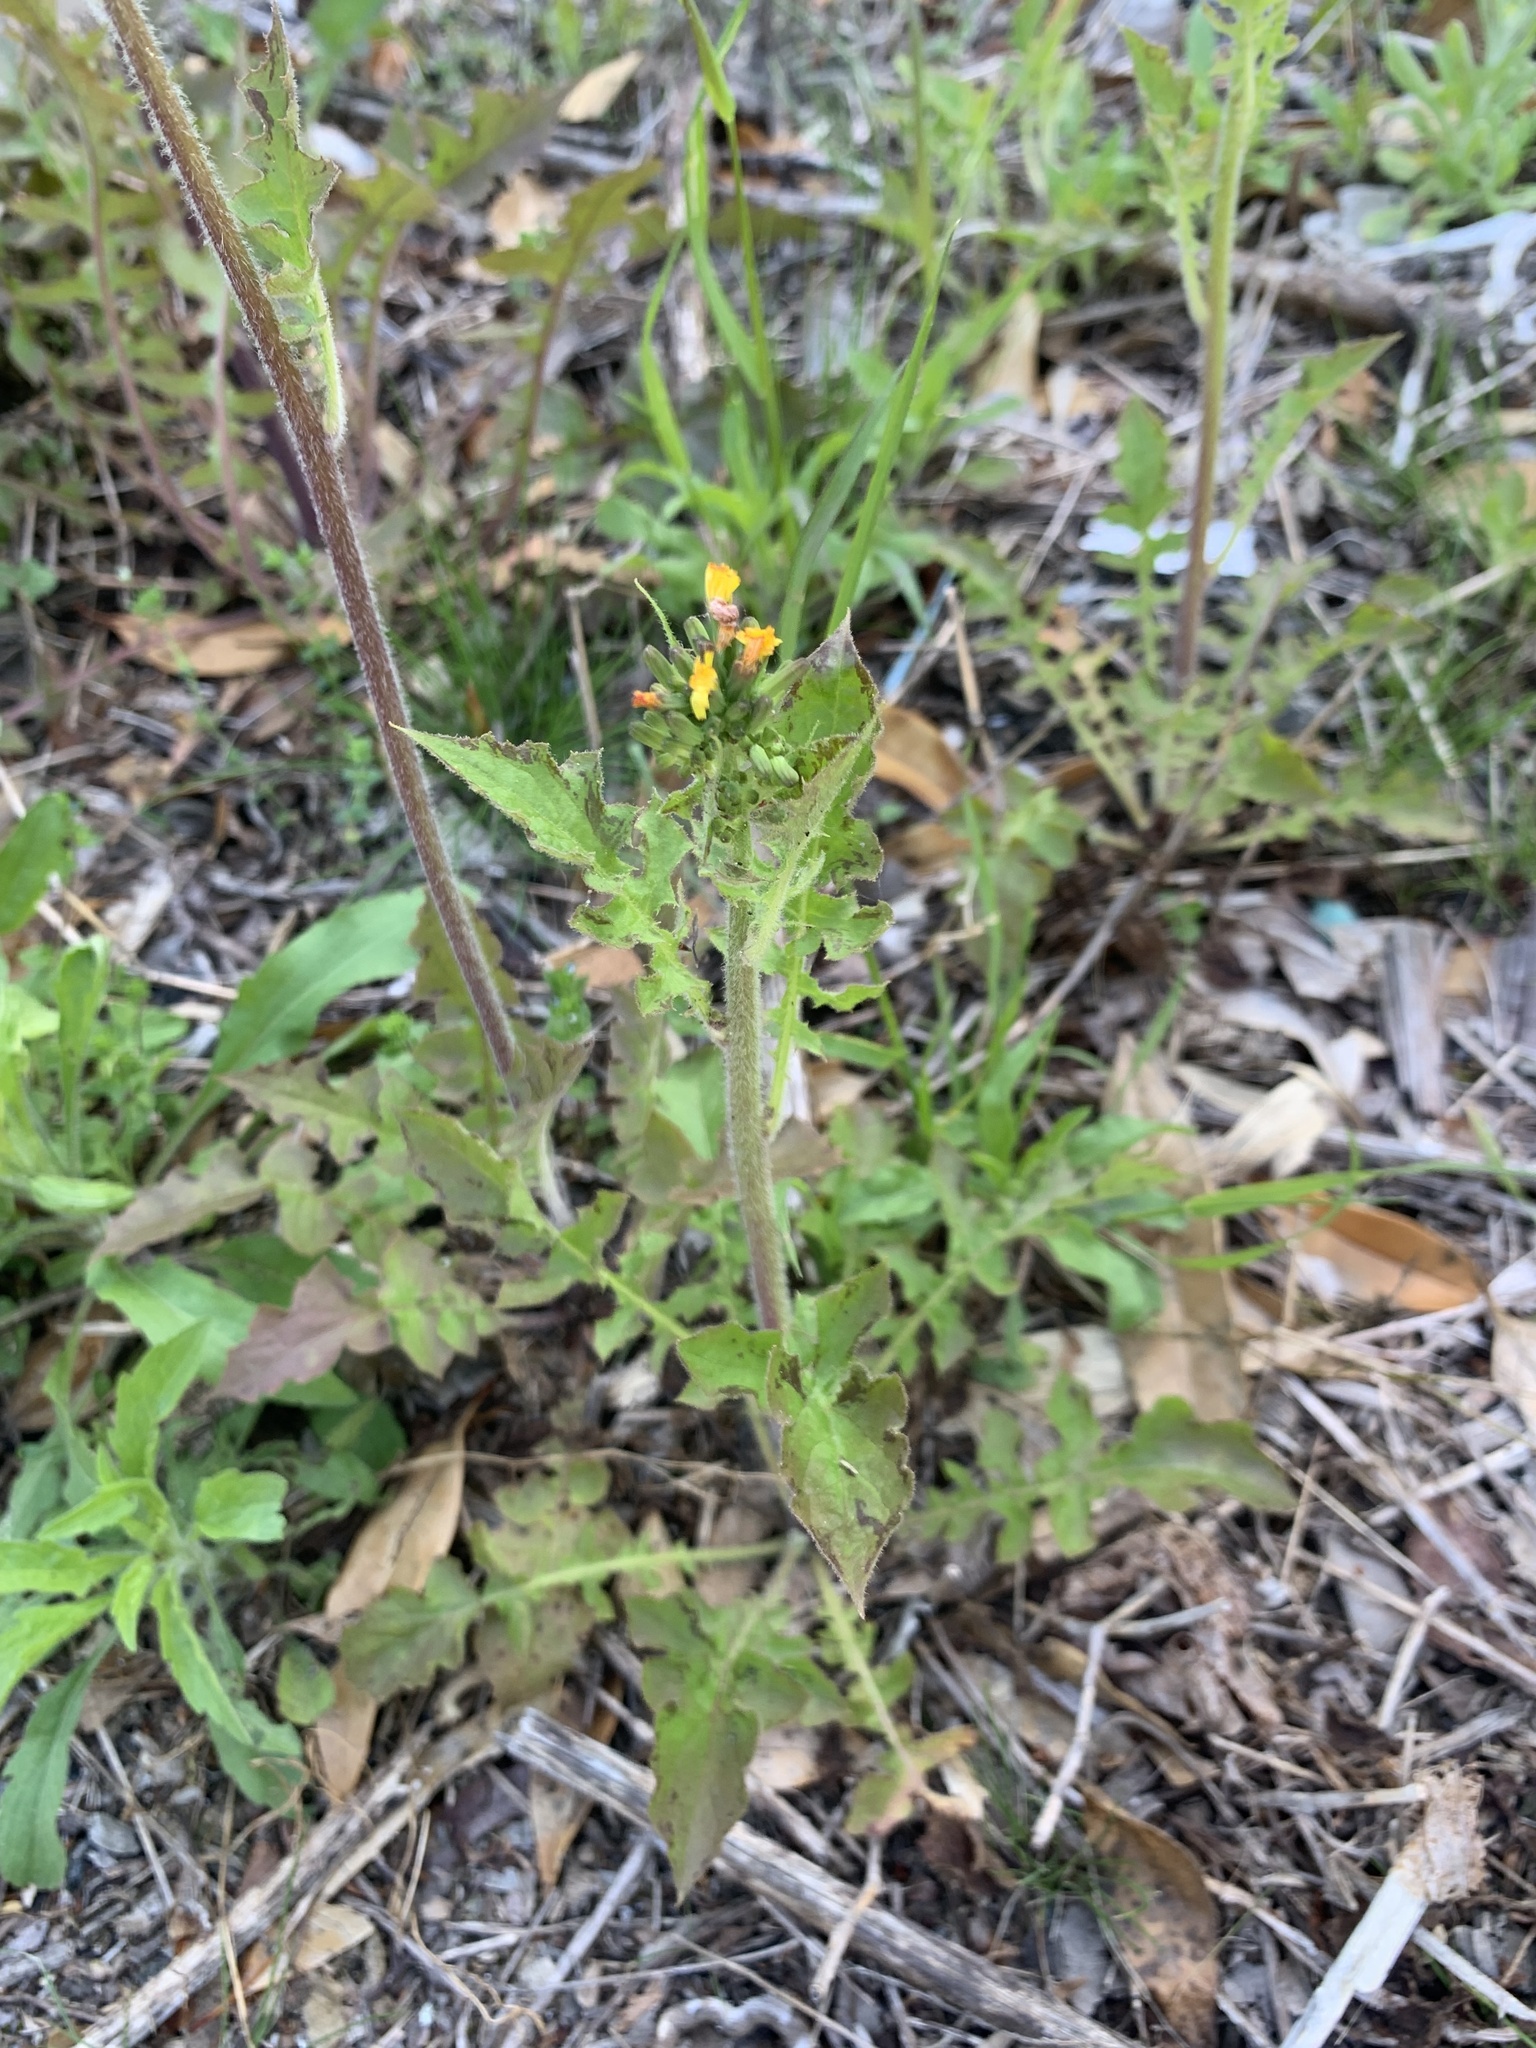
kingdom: Plantae
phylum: Tracheophyta
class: Magnoliopsida
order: Asterales
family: Asteraceae
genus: Youngia
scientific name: Youngia japonica
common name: Oriental false hawksbeard
